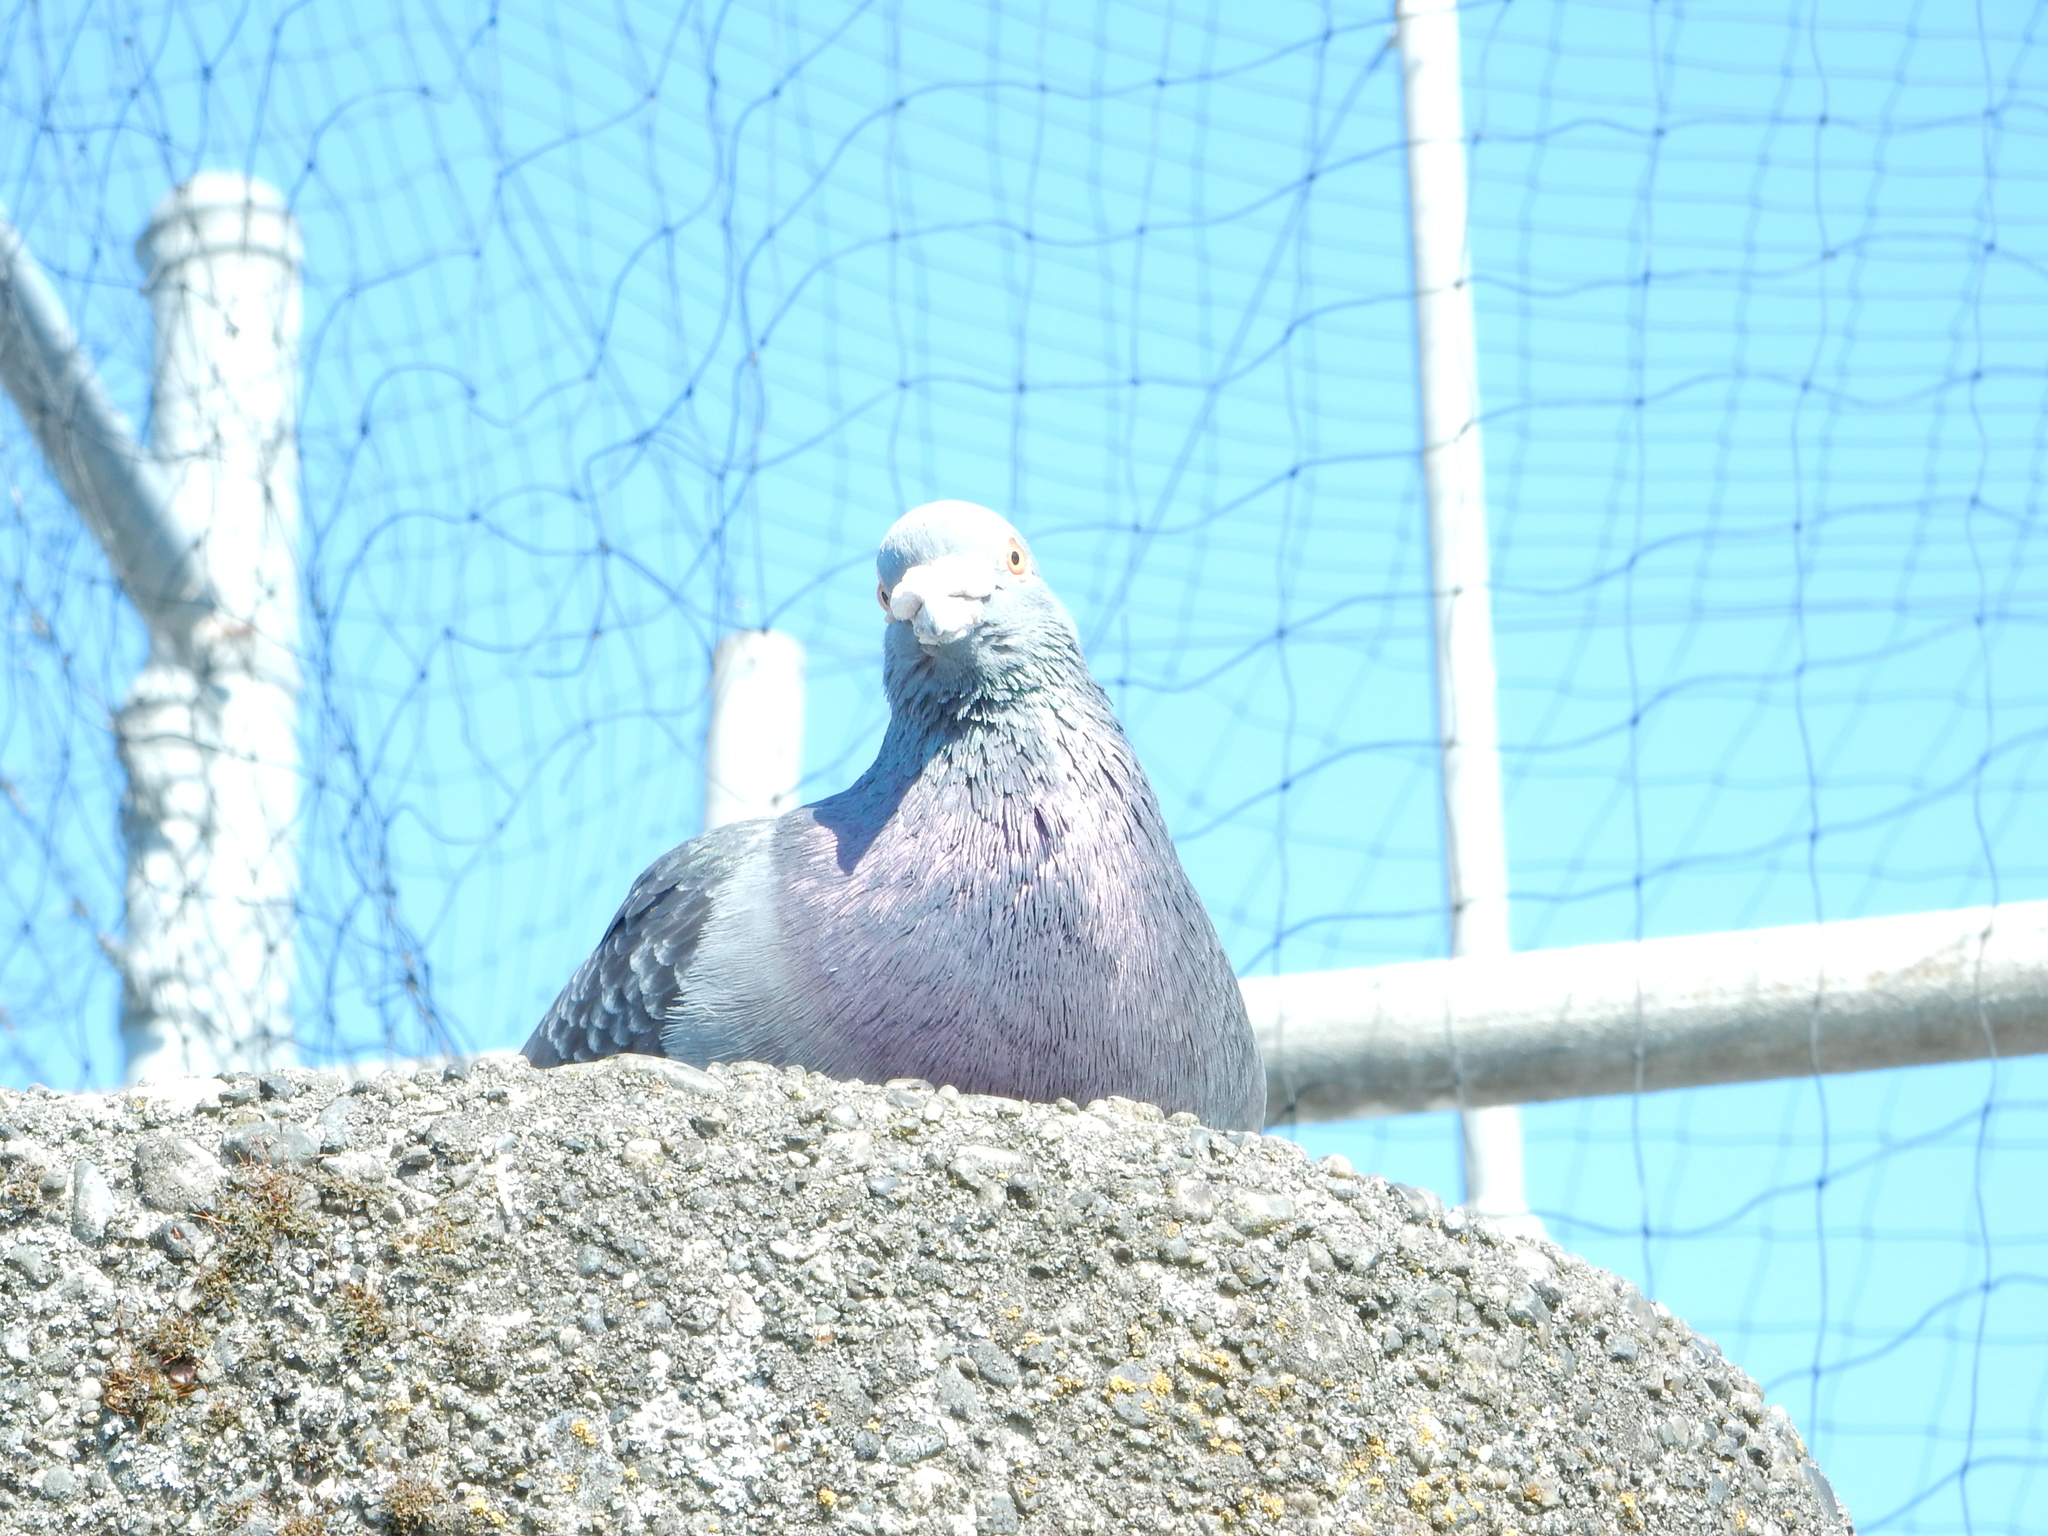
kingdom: Animalia
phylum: Chordata
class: Aves
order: Columbiformes
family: Columbidae
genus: Columba
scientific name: Columba livia
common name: Rock pigeon
